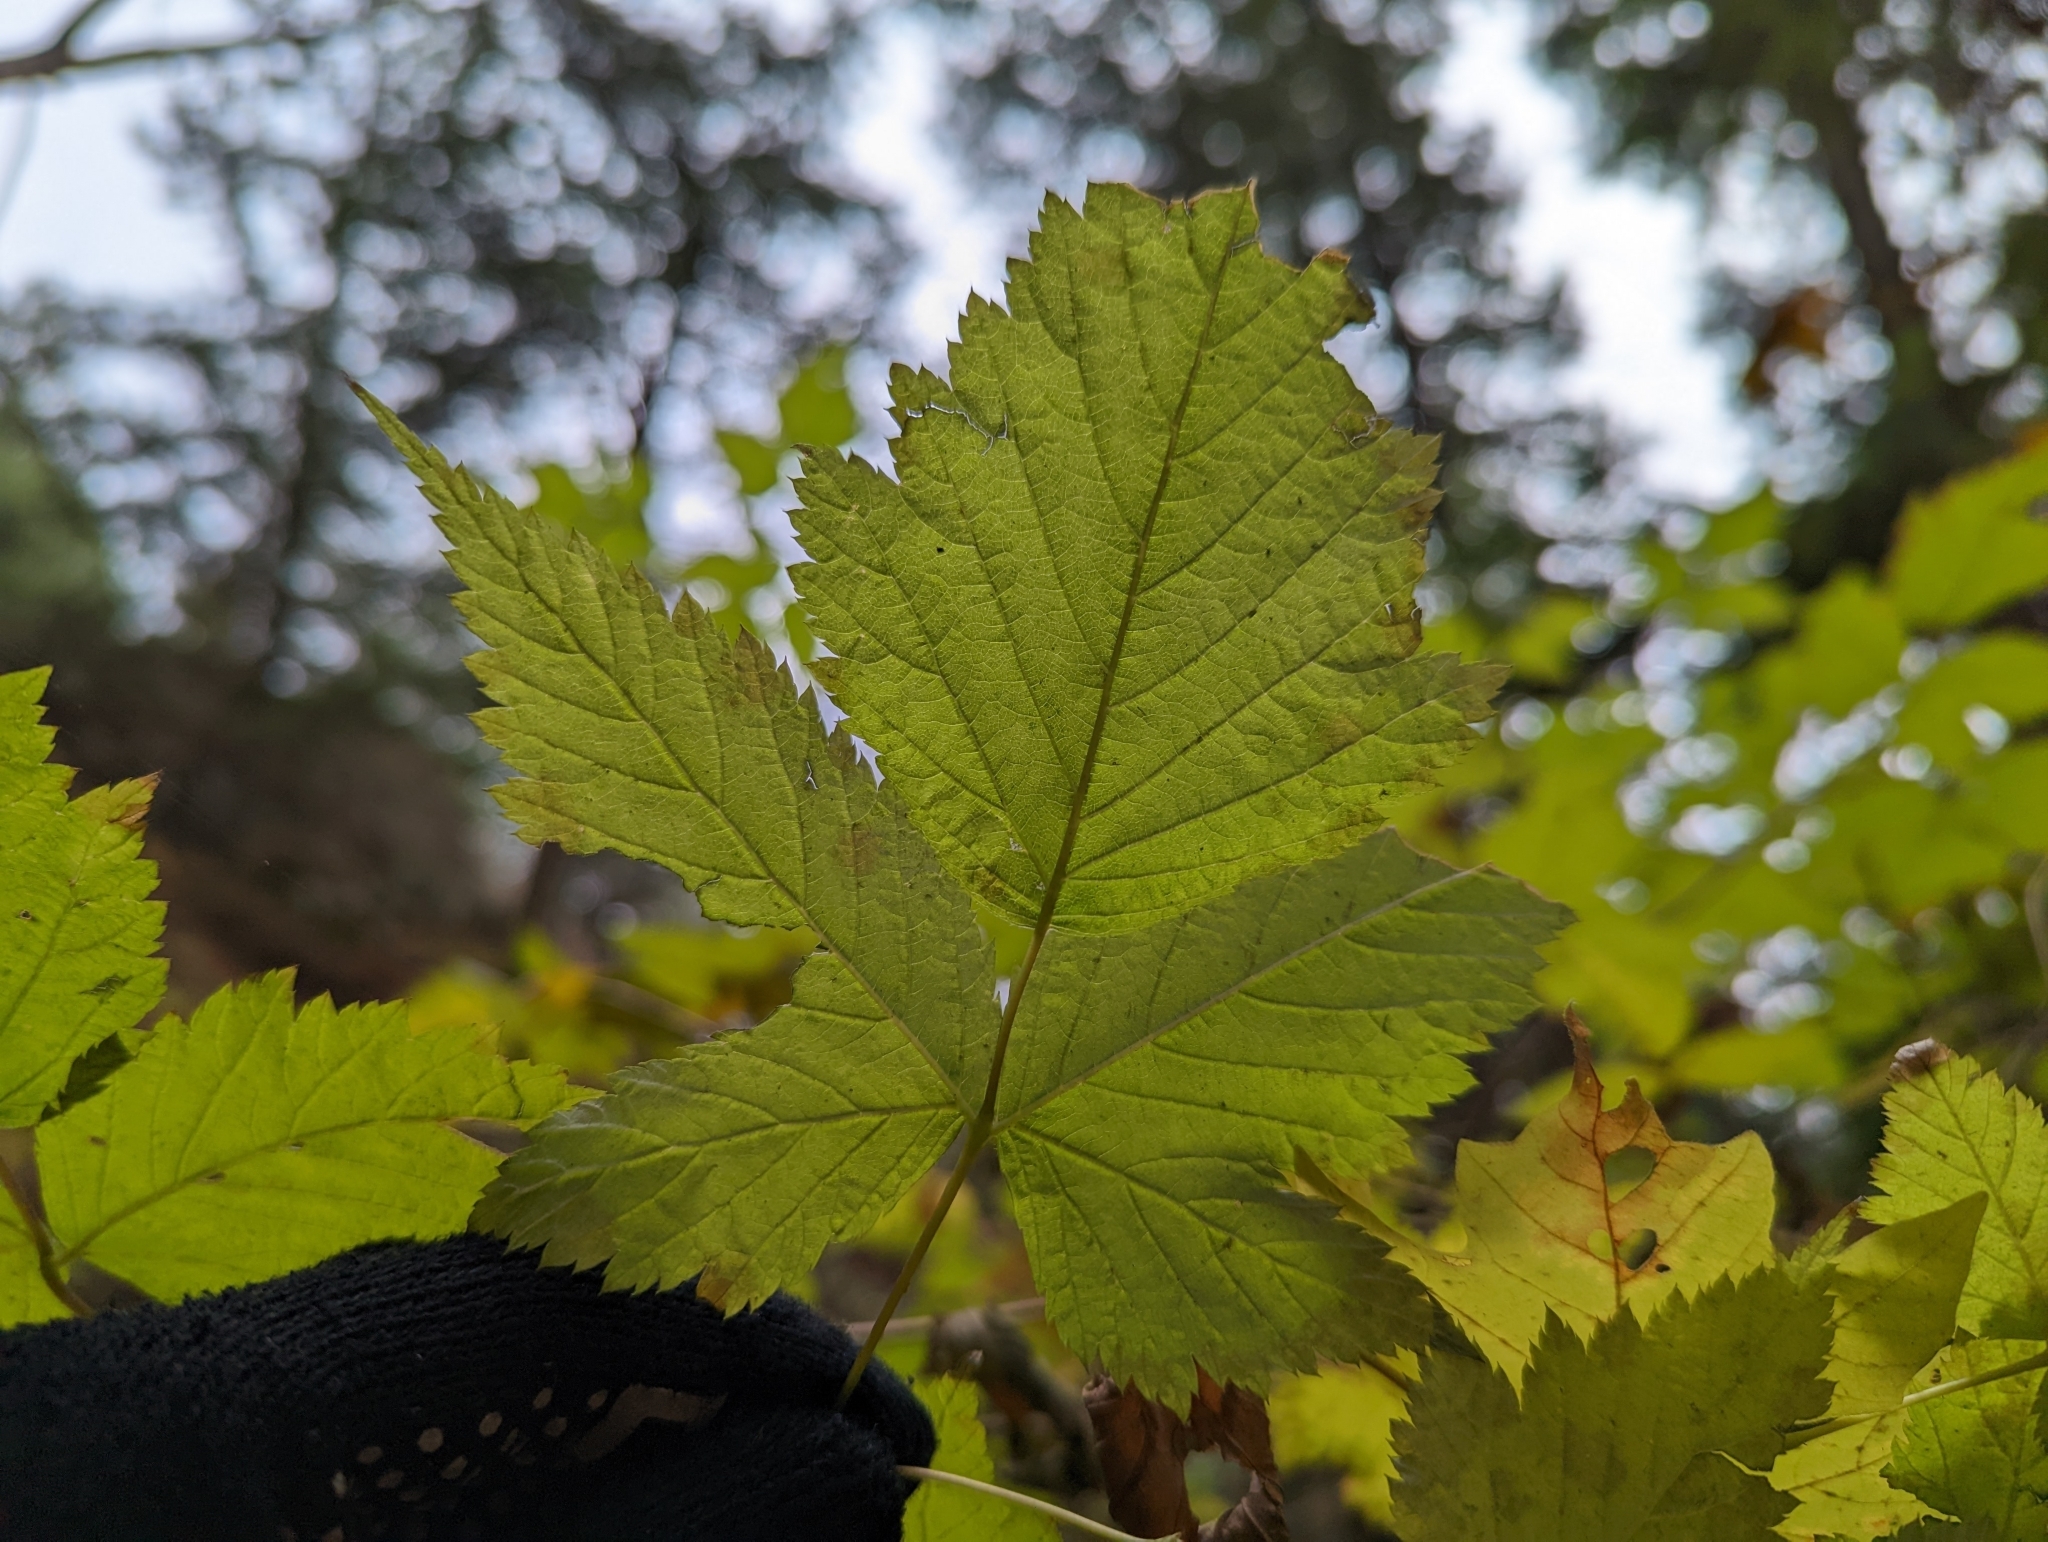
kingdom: Plantae
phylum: Tracheophyta
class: Magnoliopsida
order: Rosales
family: Rosaceae
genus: Rubus
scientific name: Rubus spectabilis
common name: Salmonberry
